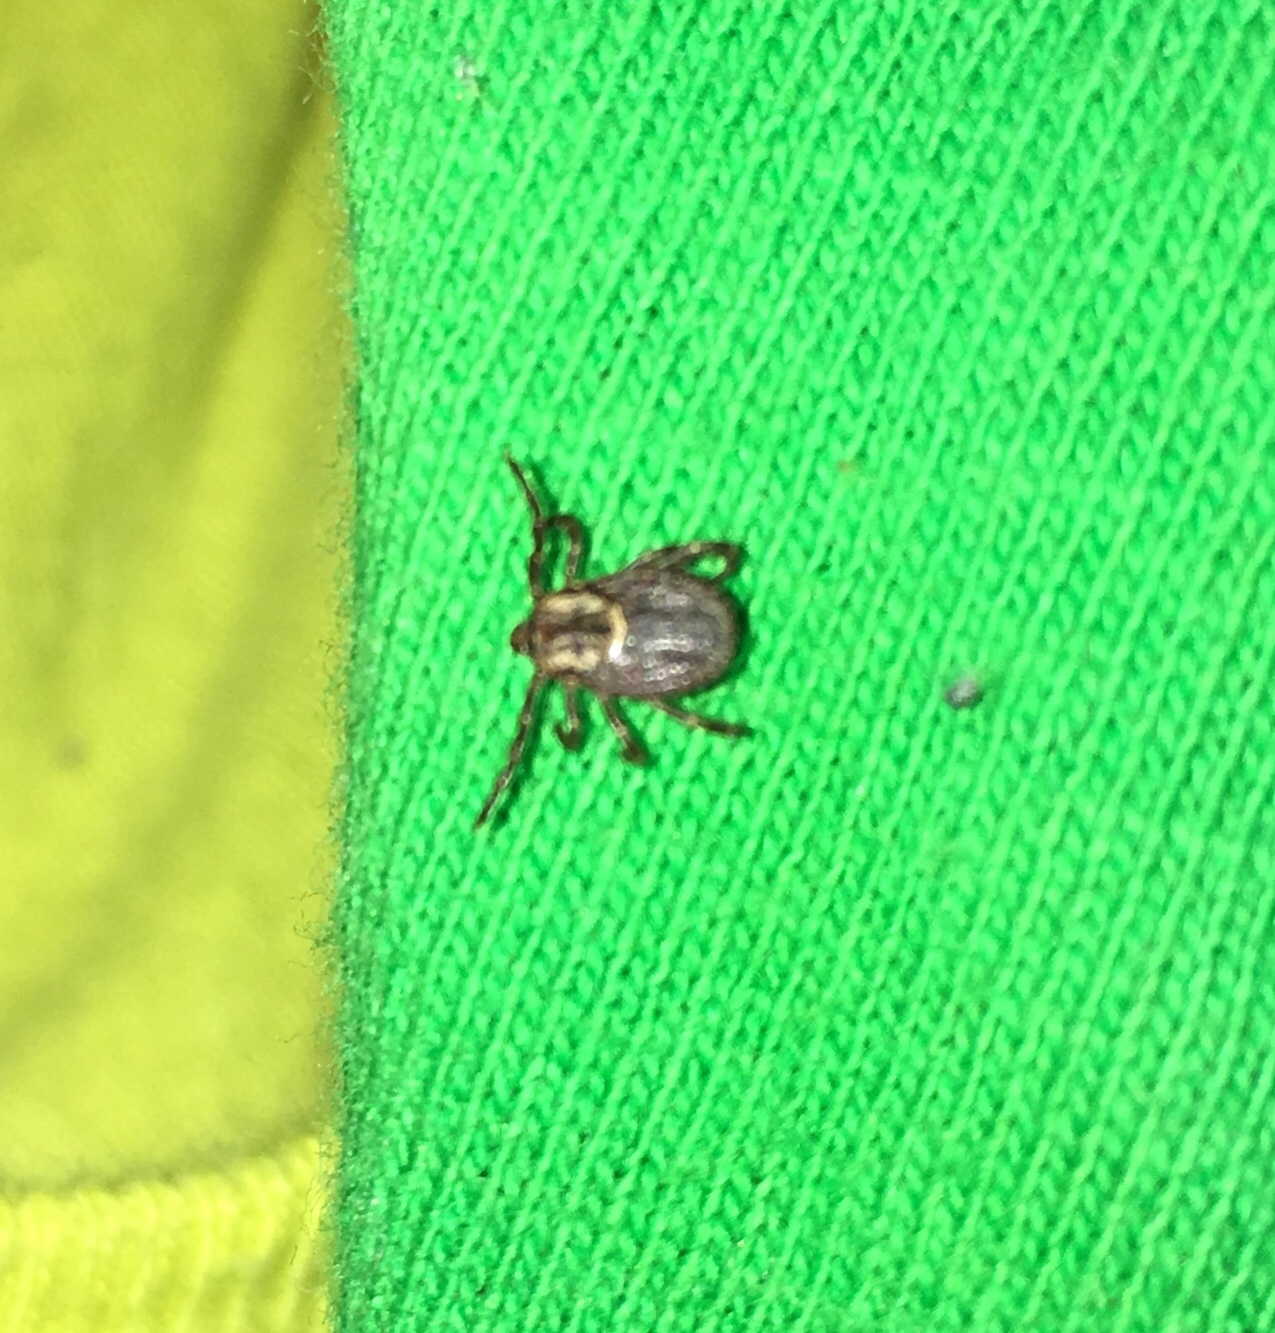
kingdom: Animalia
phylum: Arthropoda
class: Arachnida
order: Ixodida
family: Ixodidae
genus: Dermacentor
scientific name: Dermacentor variabilis
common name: American dog tick
